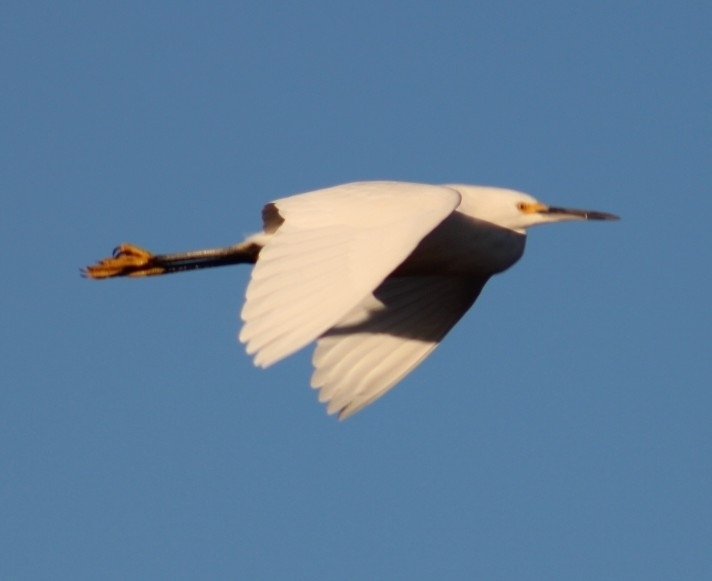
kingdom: Animalia
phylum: Chordata
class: Aves
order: Pelecaniformes
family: Ardeidae
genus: Egretta
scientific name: Egretta thula
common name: Snowy egret
